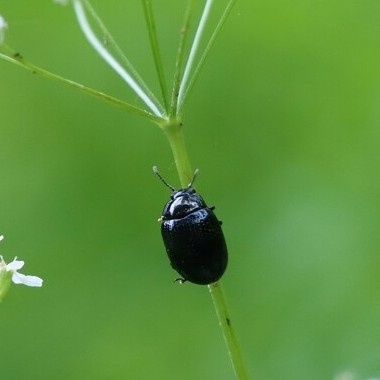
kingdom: Animalia
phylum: Arthropoda
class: Insecta
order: Coleoptera
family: Chrysomelidae
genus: Chrysolina
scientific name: Chrysolina oricalcia
